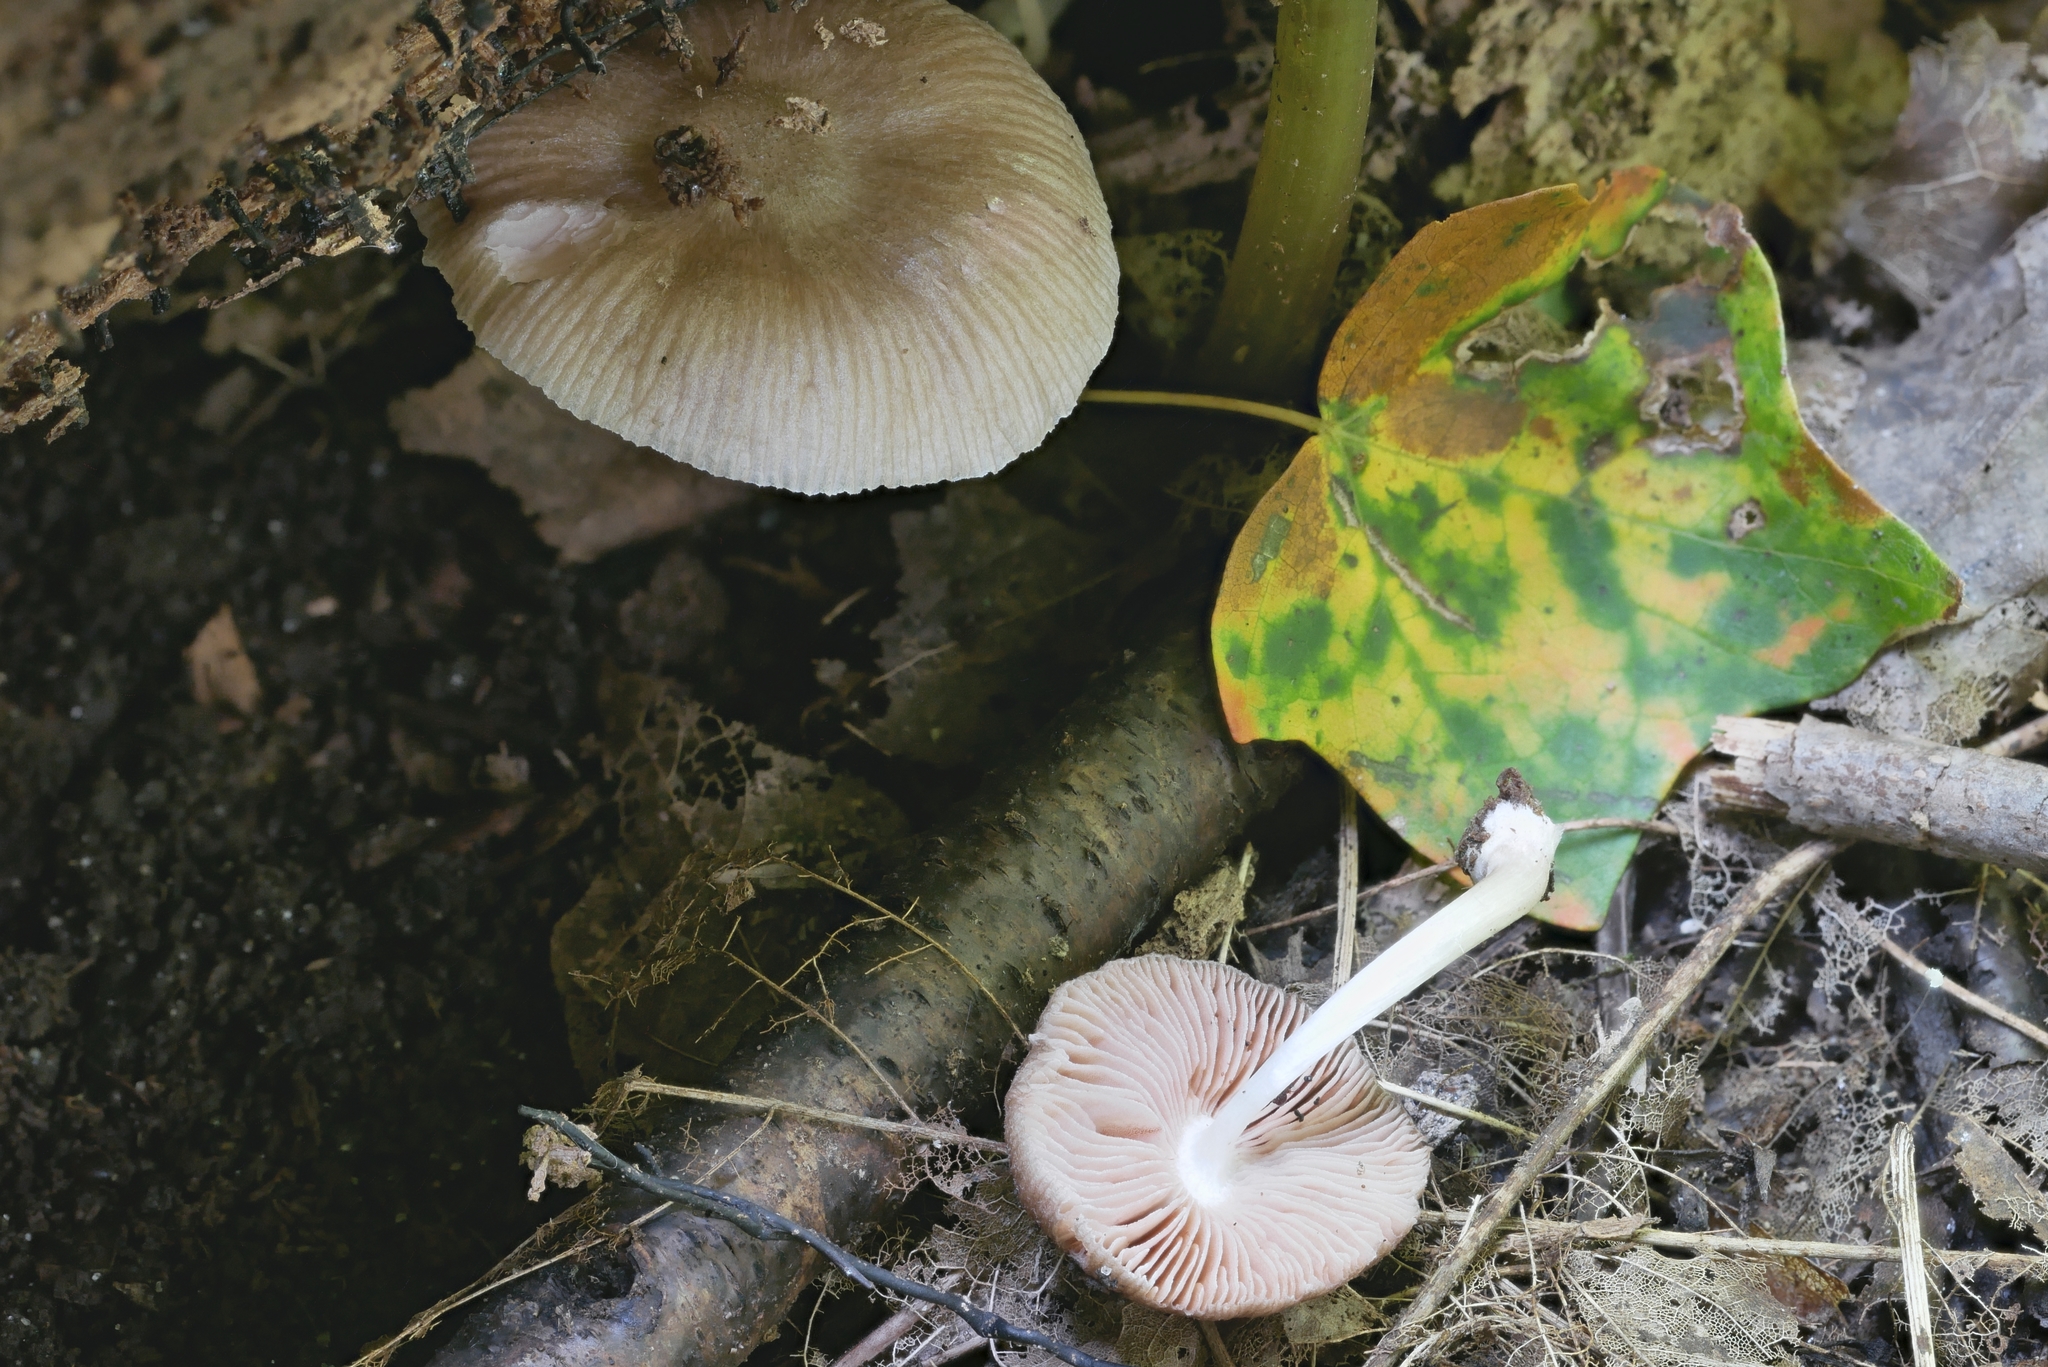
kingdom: Fungi
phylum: Basidiomycota
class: Agaricomycetes
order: Agaricales
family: Pluteaceae
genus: Pluteus
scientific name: Pluteus septocystidiatus
